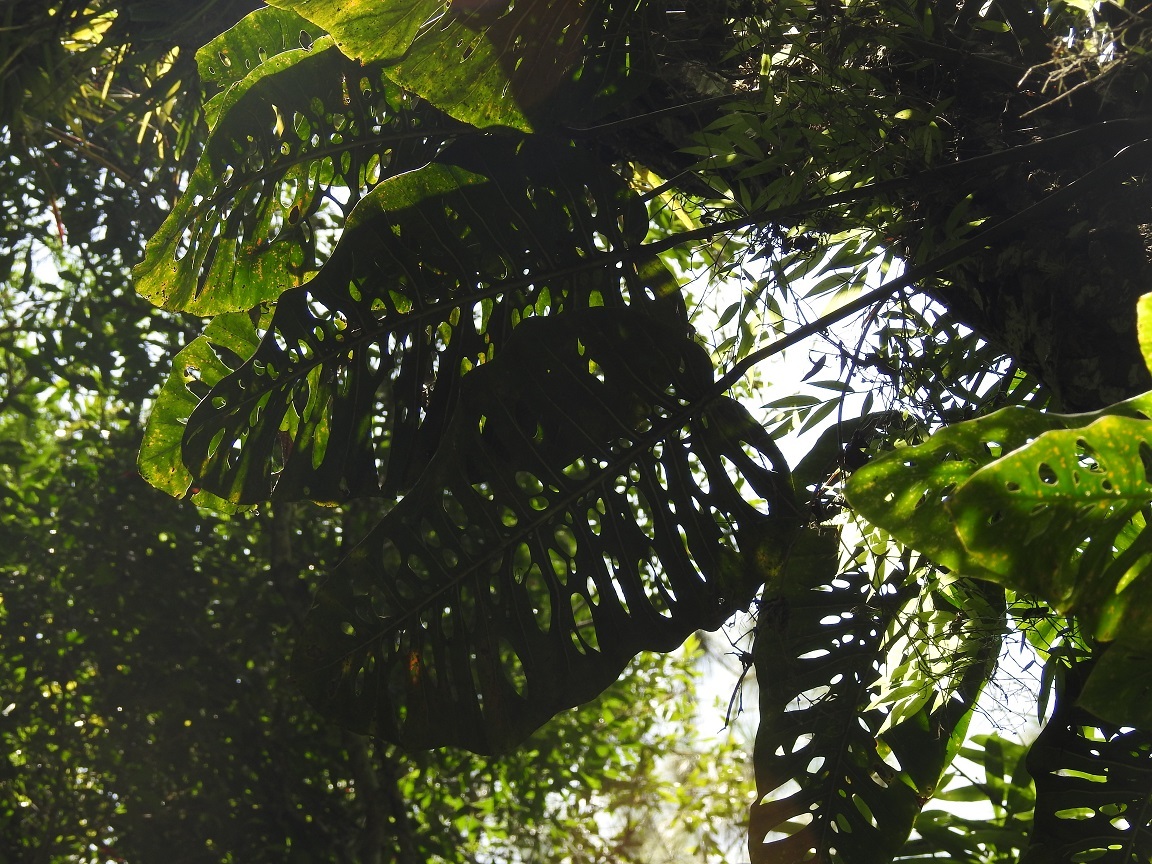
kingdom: Plantae
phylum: Tracheophyta
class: Liliopsida
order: Alismatales
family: Araceae
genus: Monstera
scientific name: Monstera siltepecana
